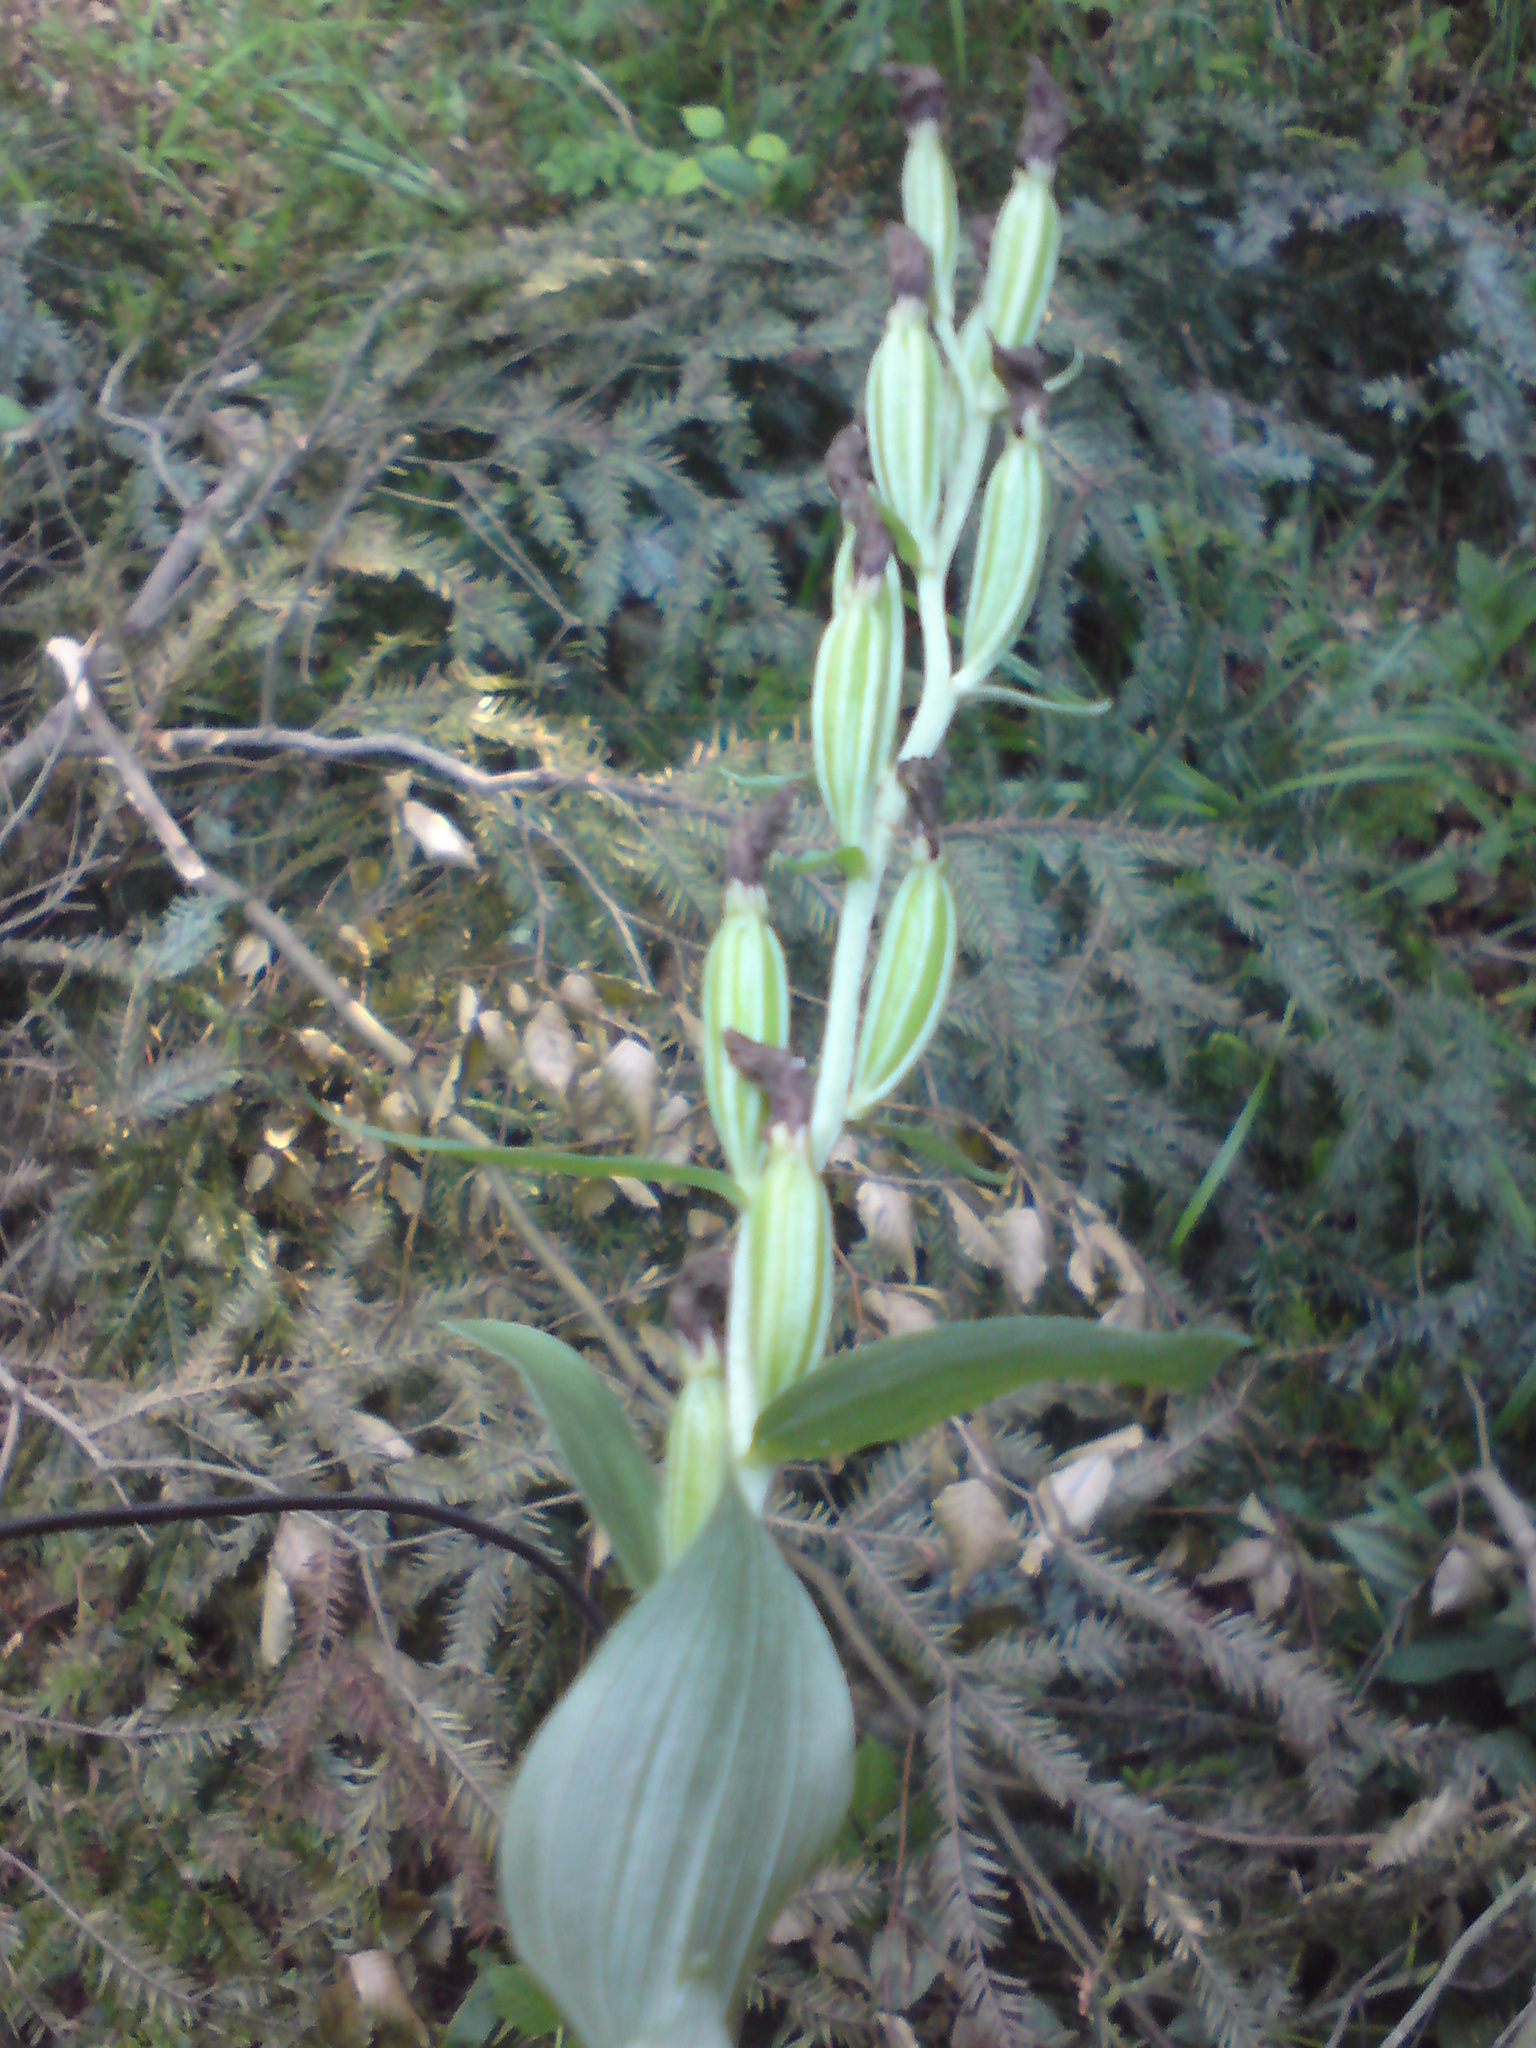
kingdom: Plantae
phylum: Tracheophyta
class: Liliopsida
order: Asparagales
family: Orchidaceae
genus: Cephalanthera
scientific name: Cephalanthera damasonium
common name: White helleborine
